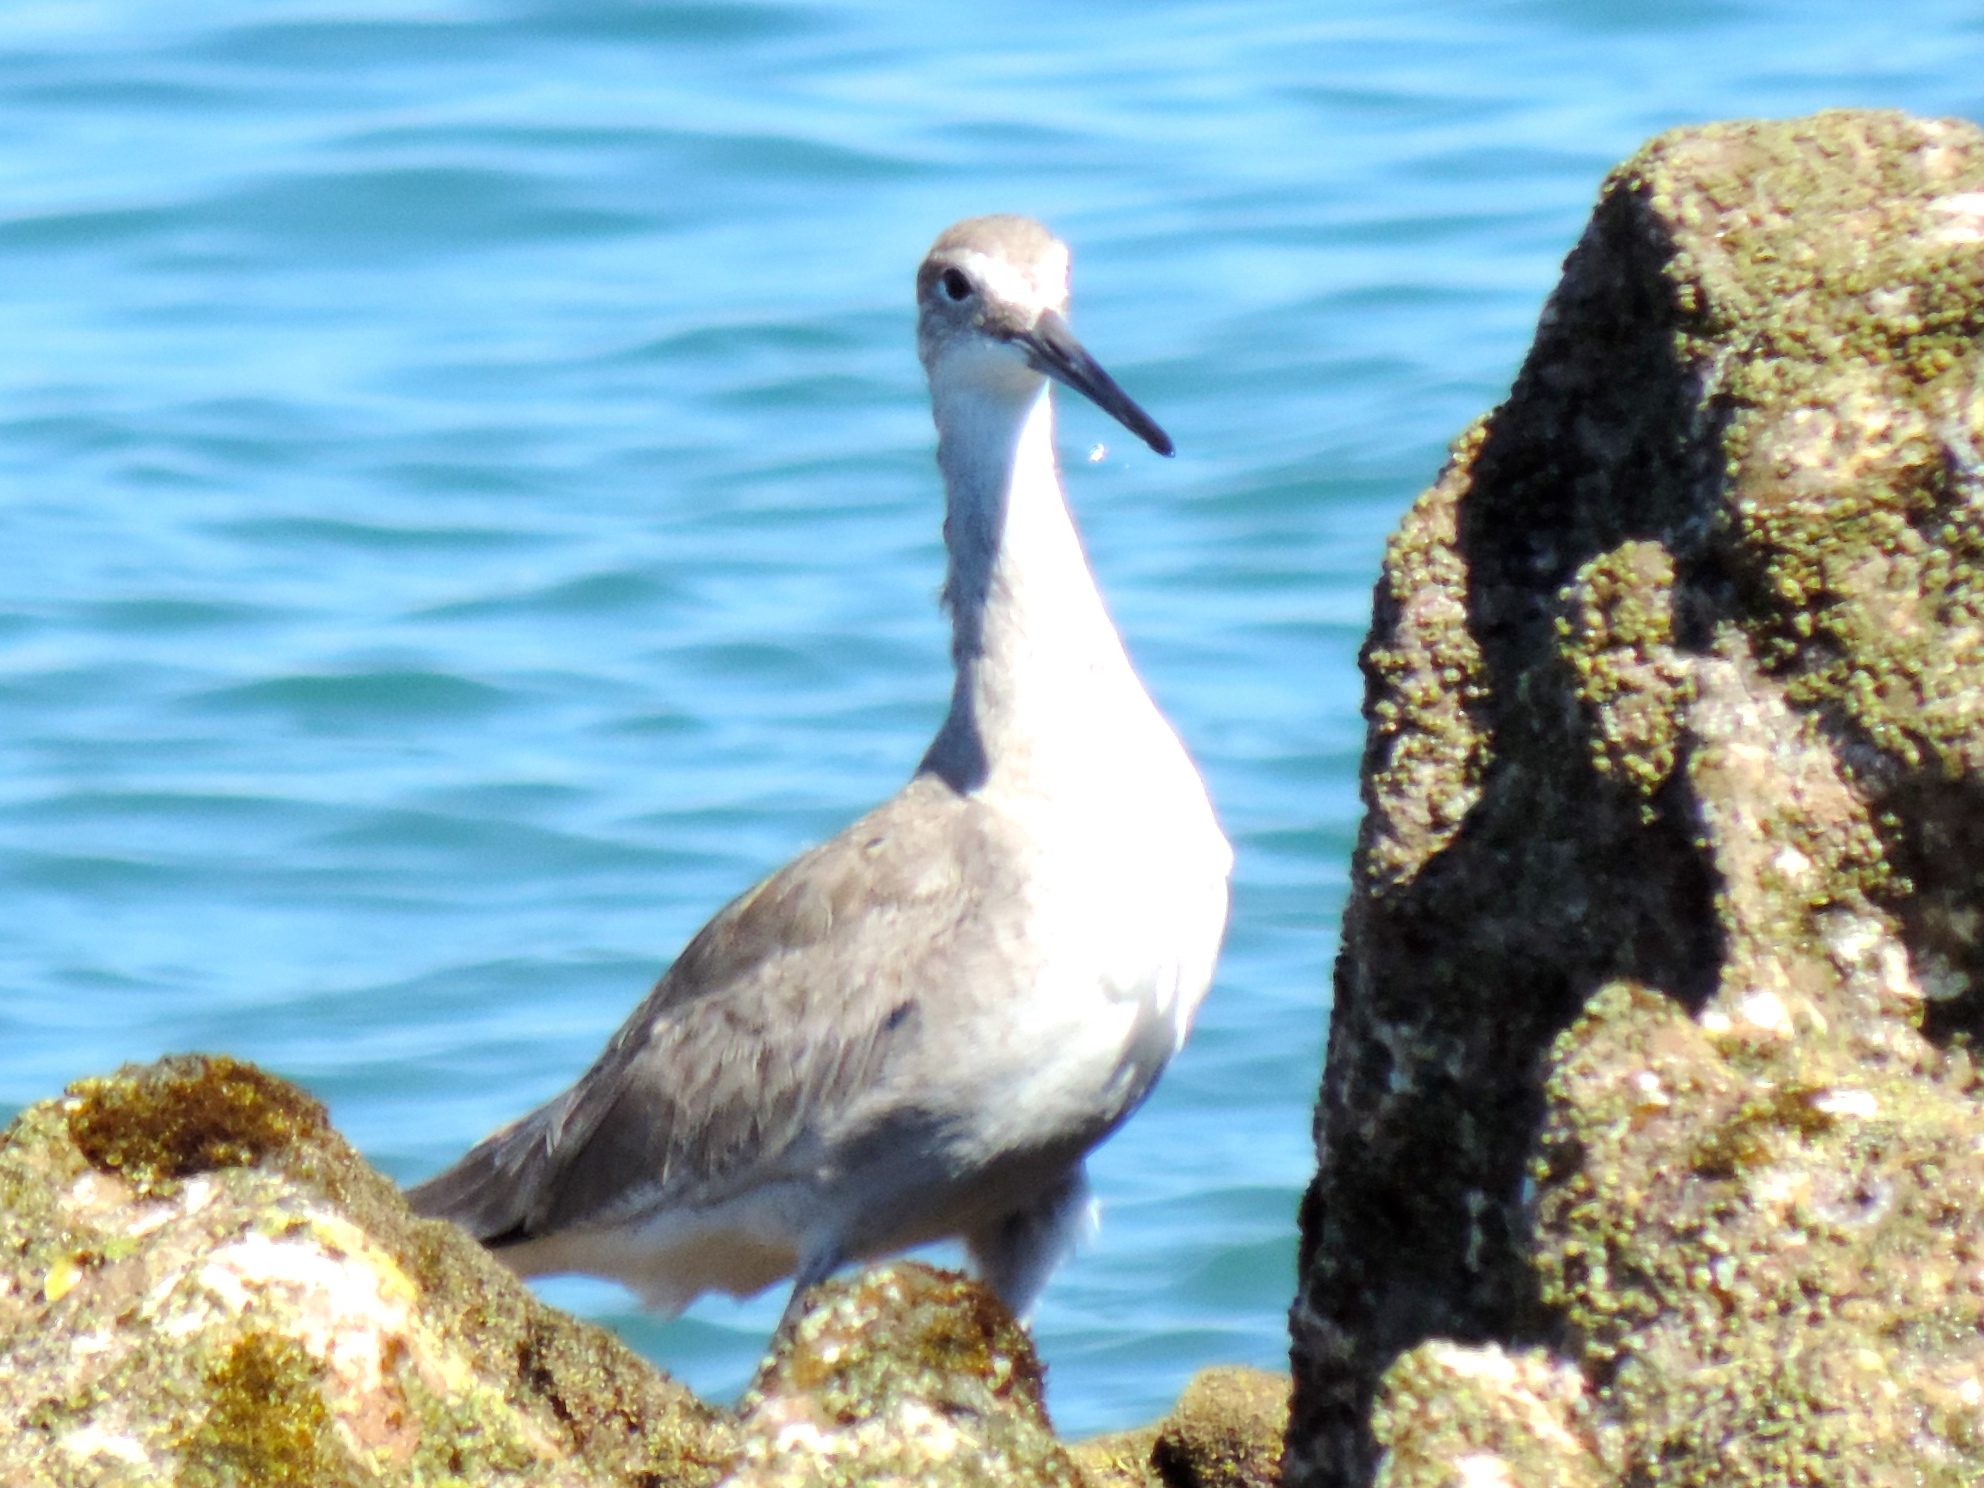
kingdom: Animalia
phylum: Chordata
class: Aves
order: Charadriiformes
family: Scolopacidae
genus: Tringa
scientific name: Tringa semipalmata
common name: Willet
